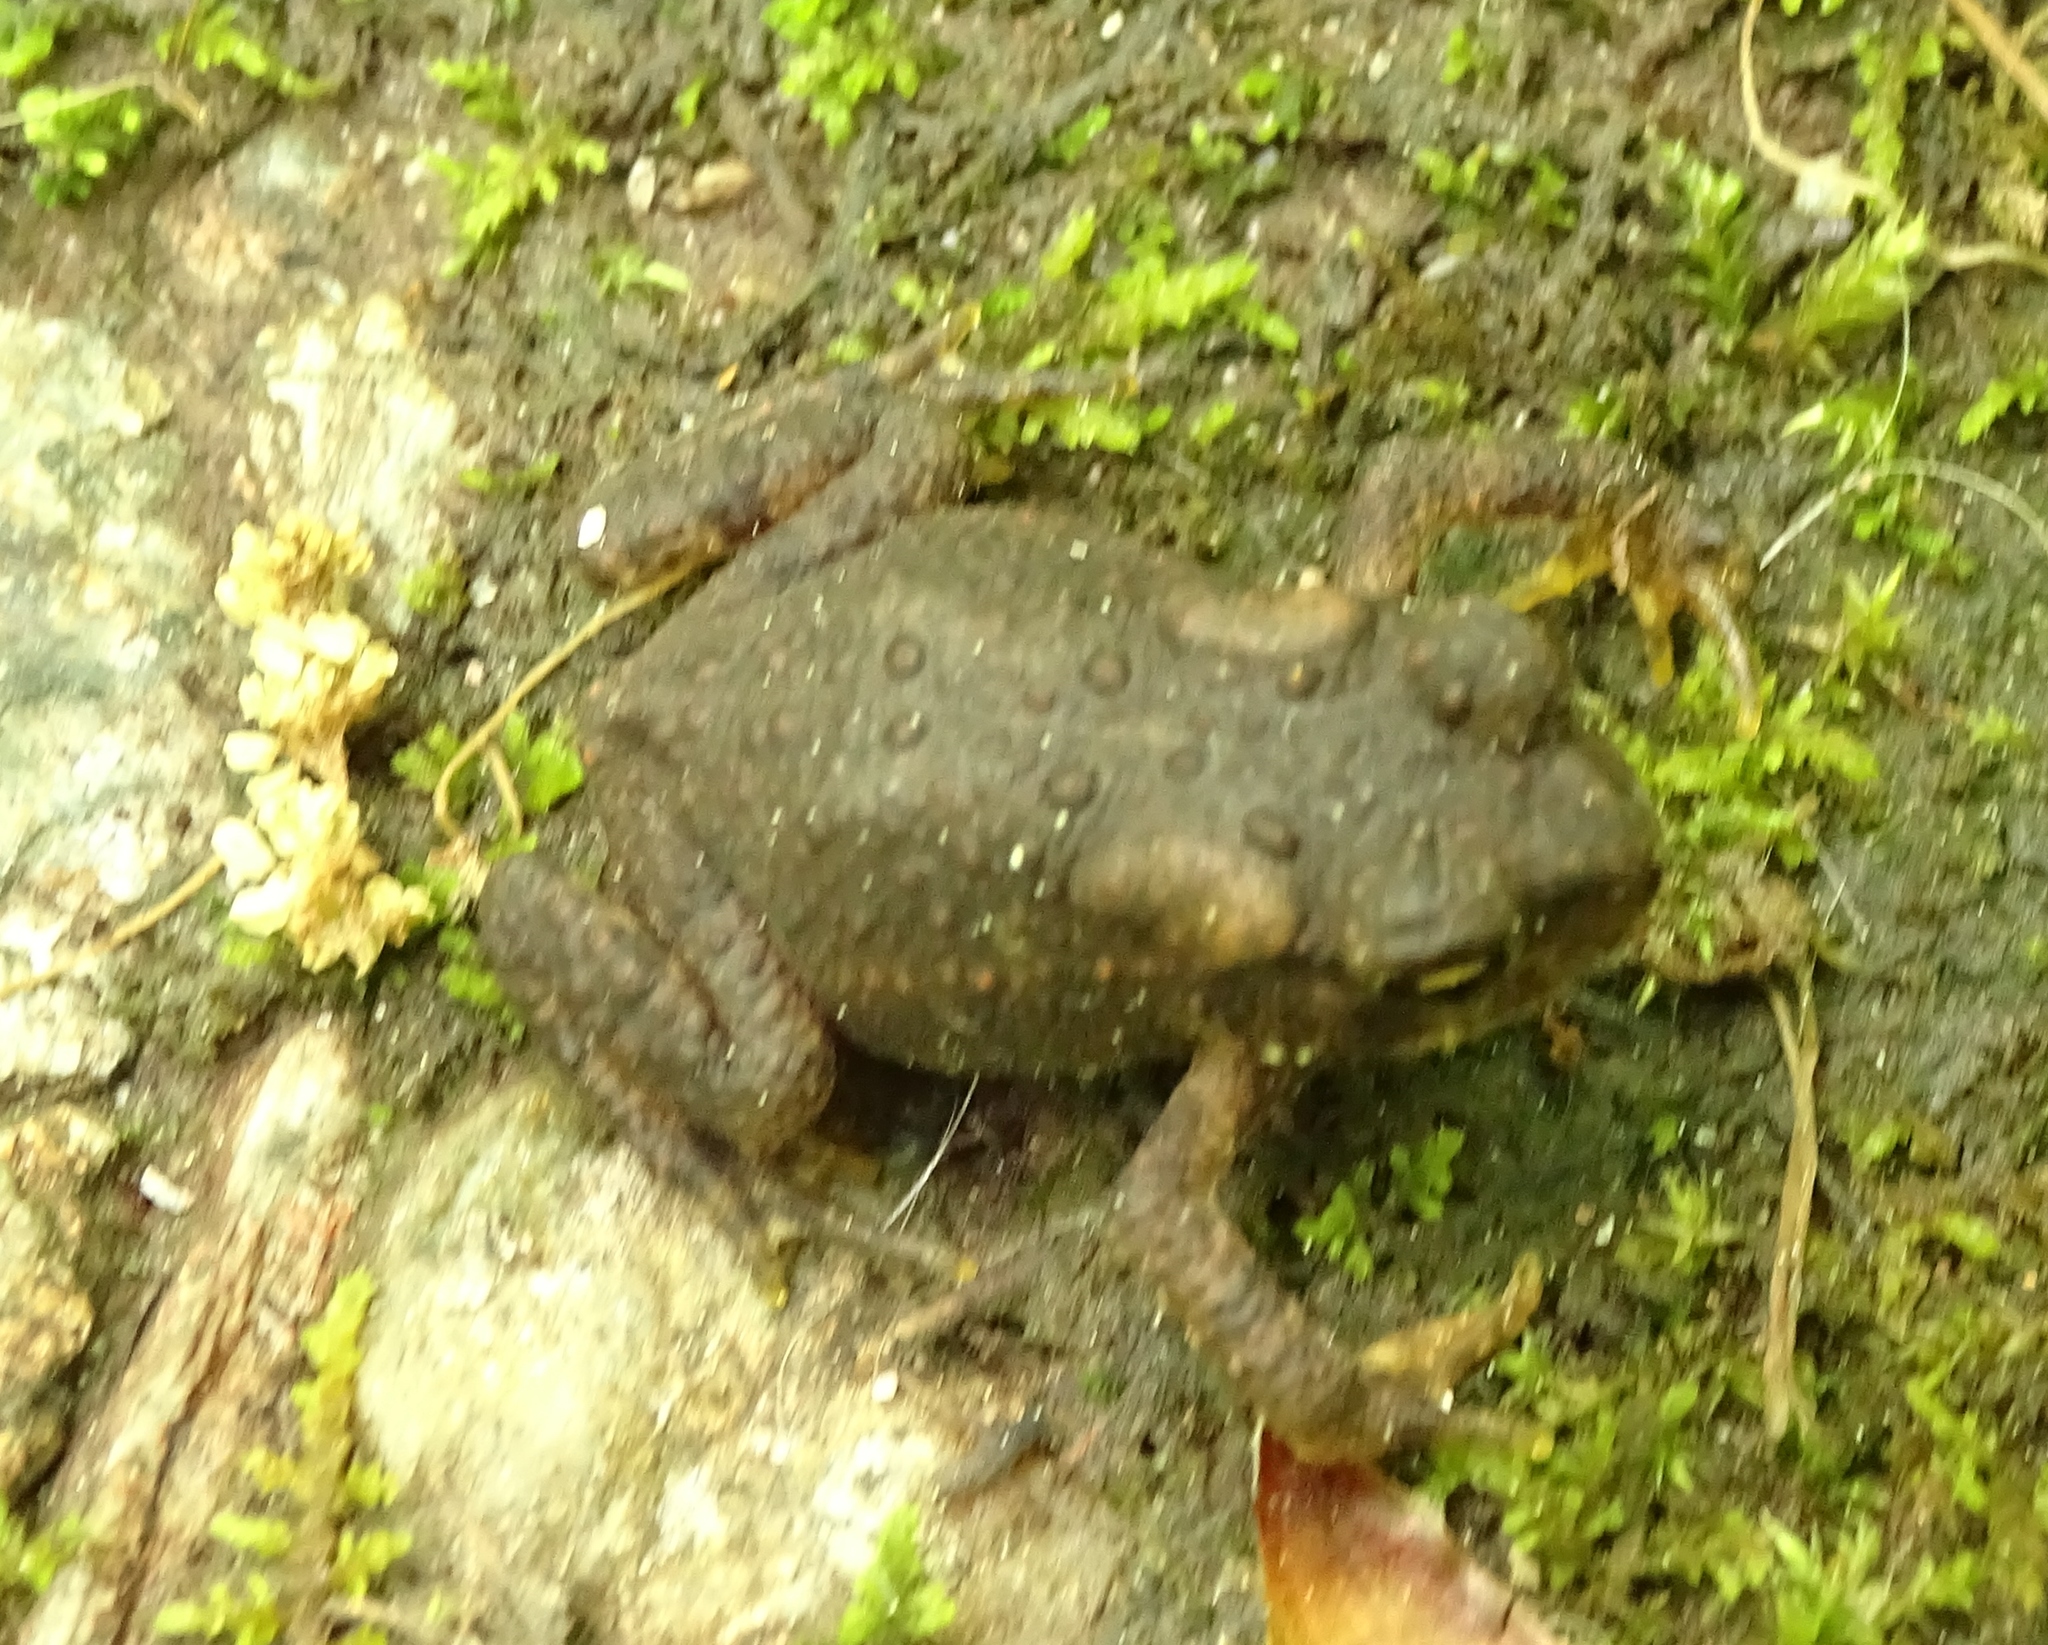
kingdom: Animalia
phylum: Chordata
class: Amphibia
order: Anura
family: Bufonidae
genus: Anaxyrus
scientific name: Anaxyrus americanus
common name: American toad
